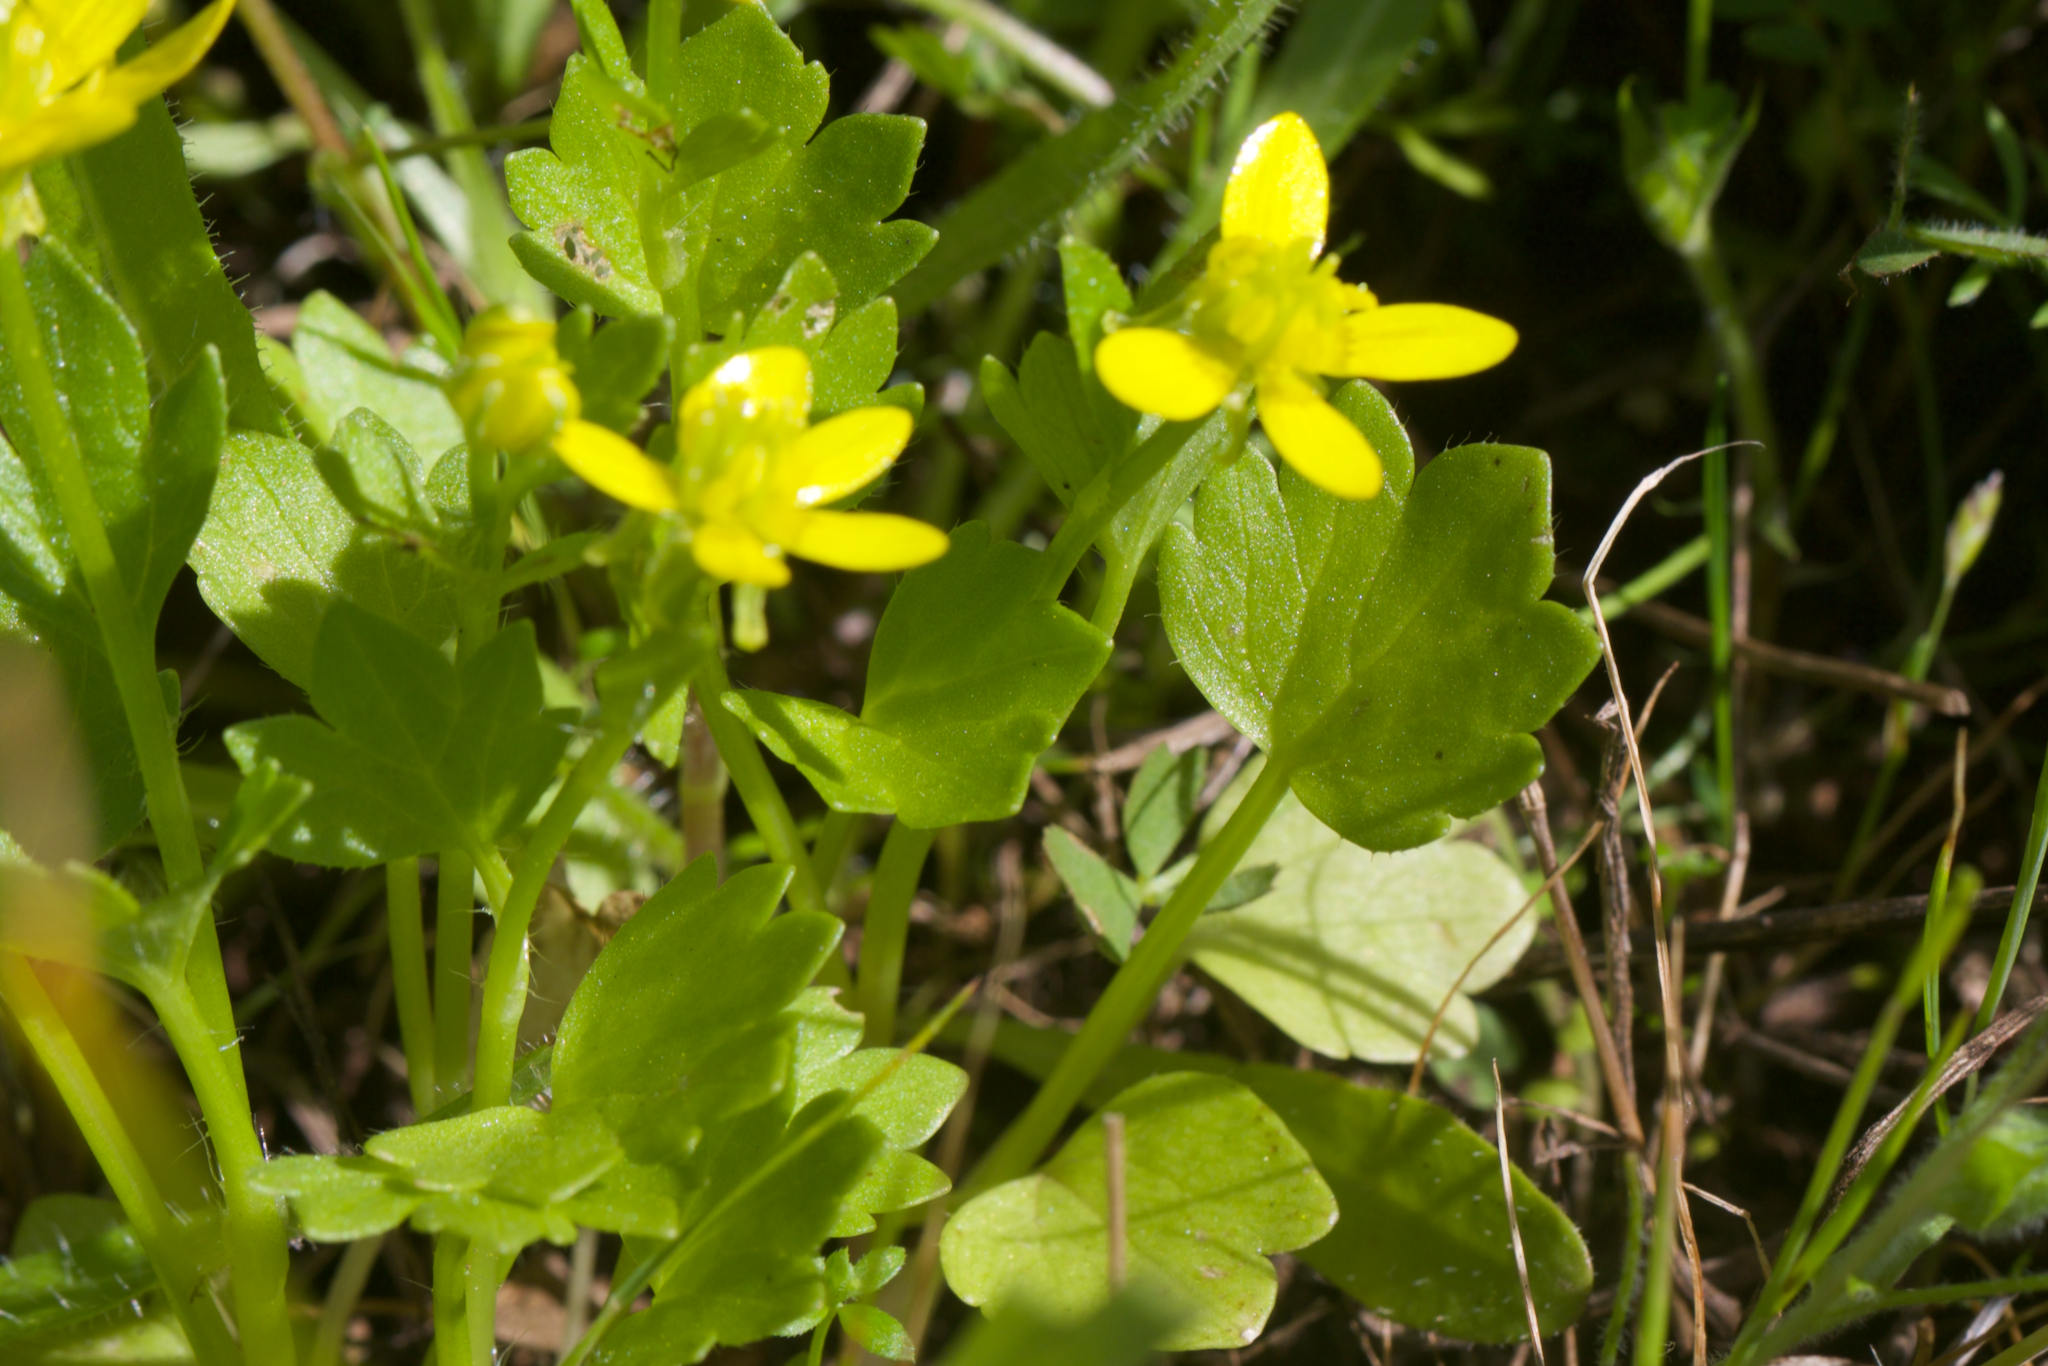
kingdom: Plantae
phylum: Tracheophyta
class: Magnoliopsida
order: Ranunculales
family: Ranunculaceae
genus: Ranunculus
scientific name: Ranunculus muricatus
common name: Rough-fruited buttercup
